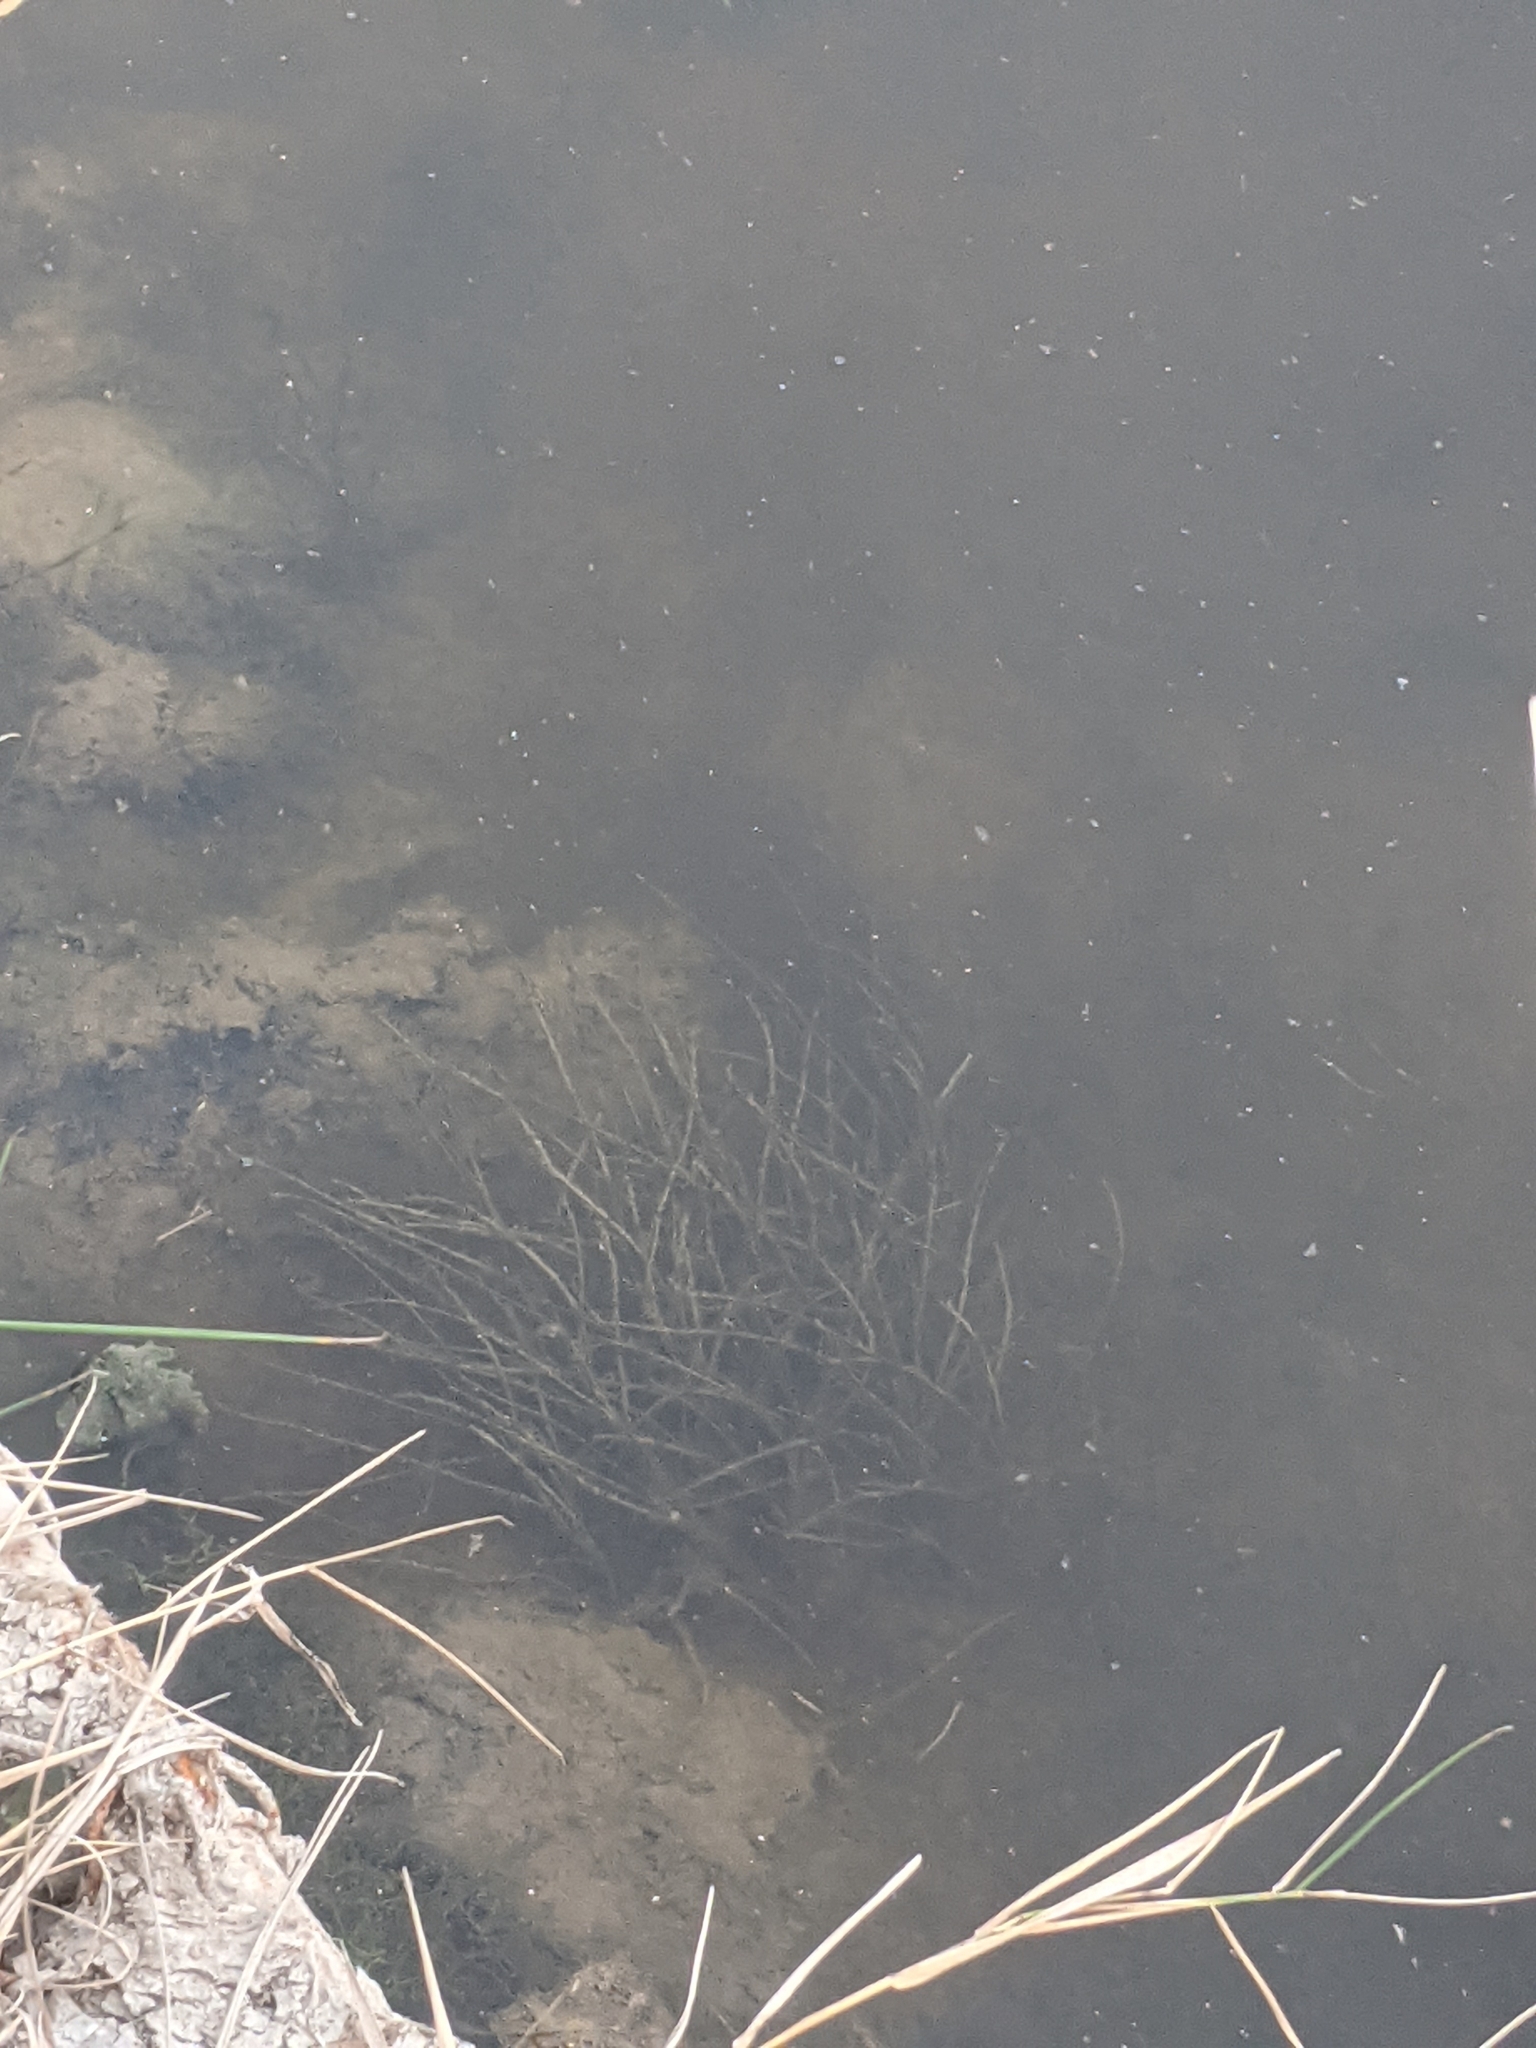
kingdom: Plantae
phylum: Tracheophyta
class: Liliopsida
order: Alismatales
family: Potamogetonaceae
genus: Stuckenia
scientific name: Stuckenia pectinata
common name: Sago pondweed
